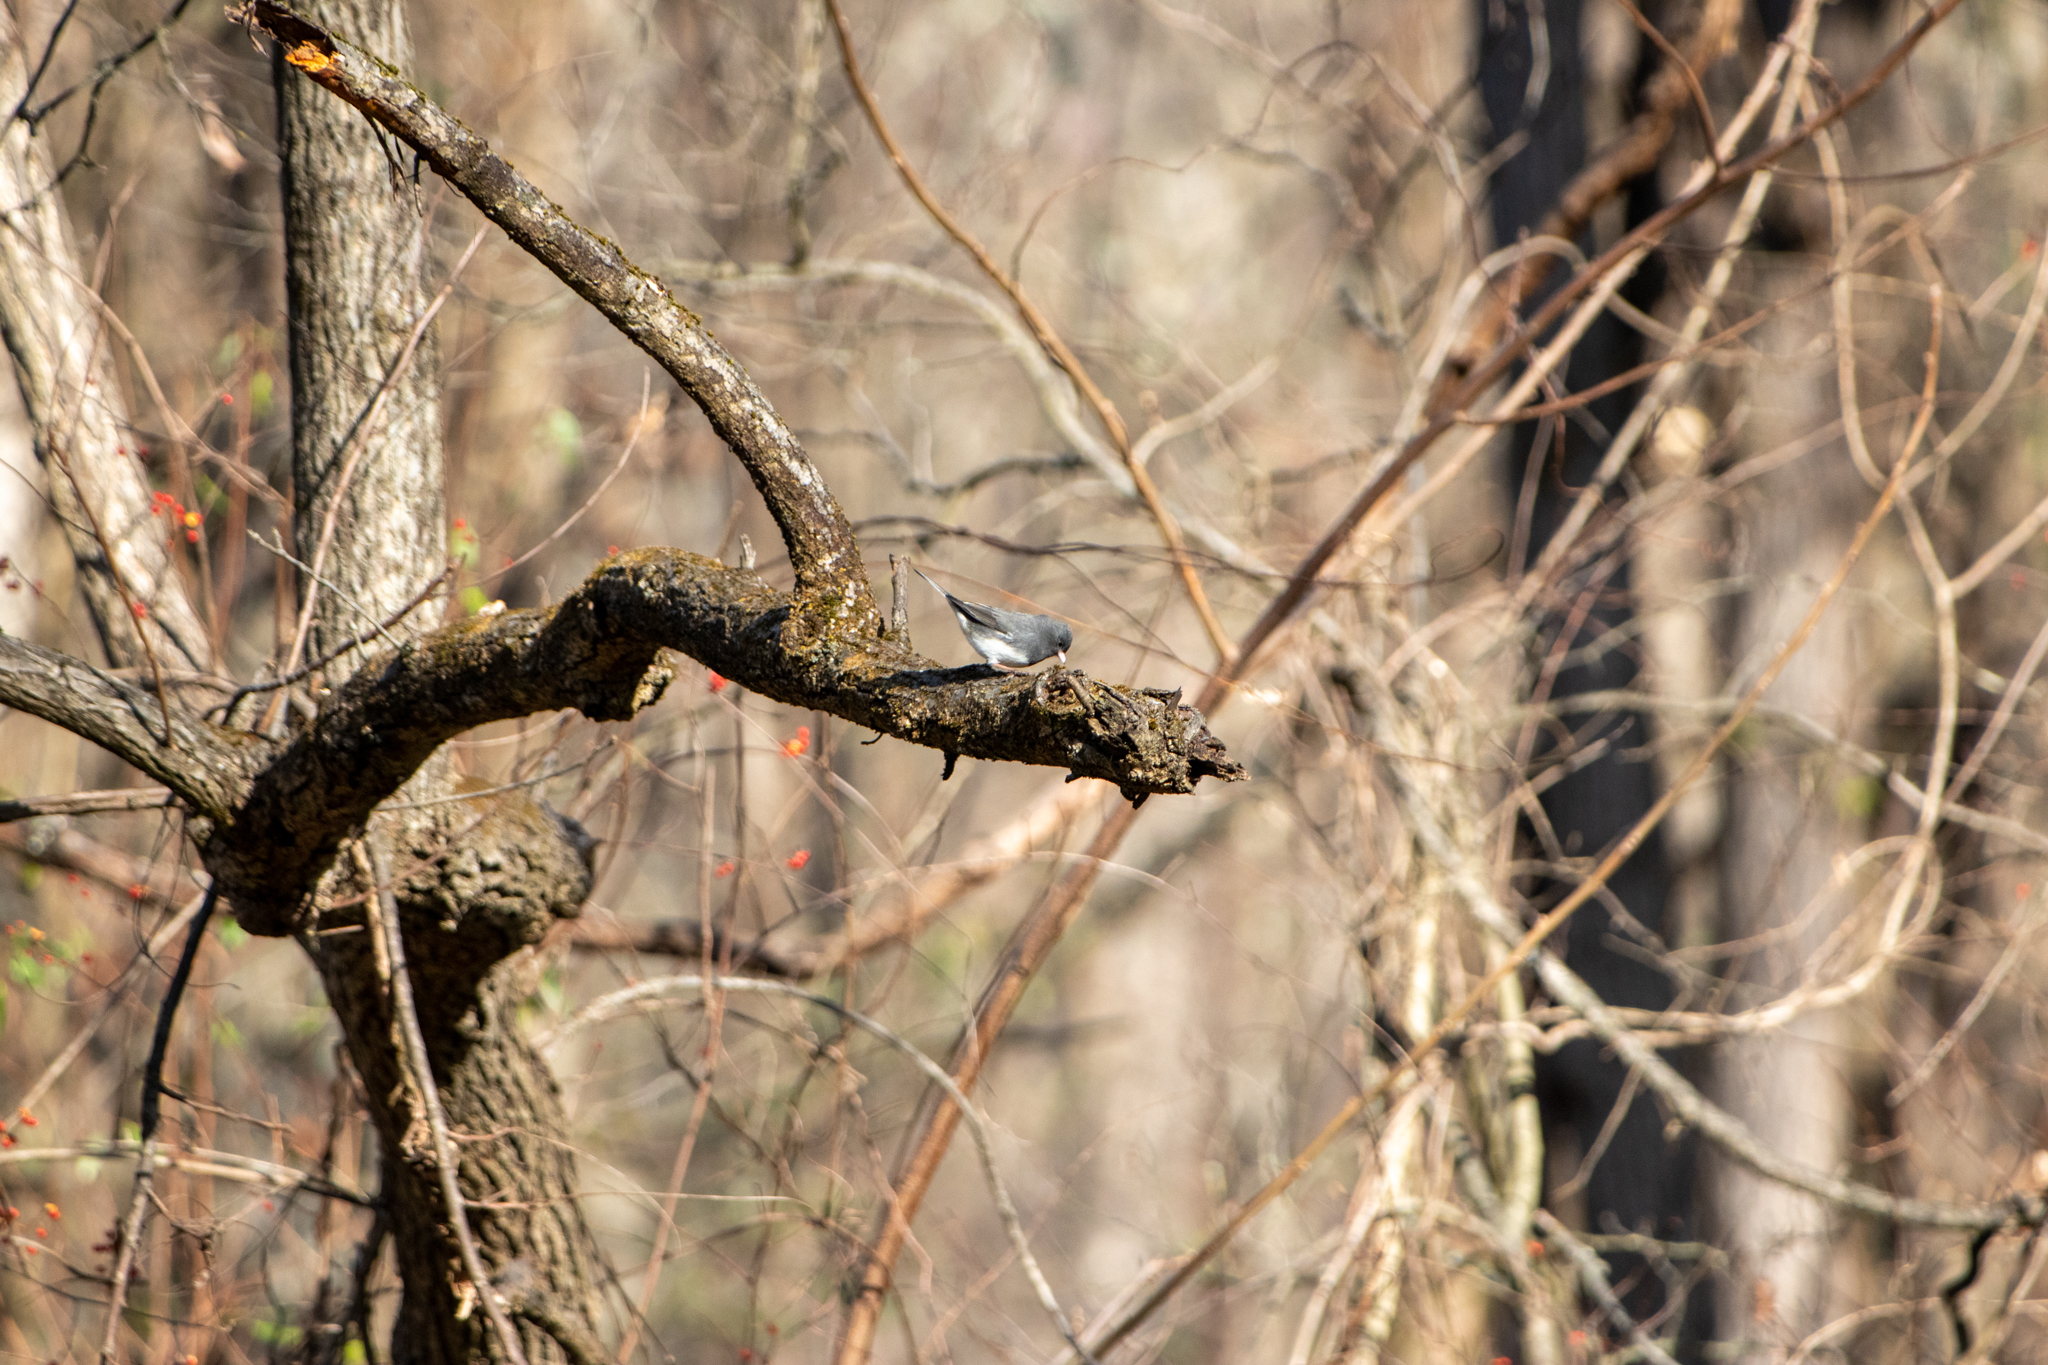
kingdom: Animalia
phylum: Chordata
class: Aves
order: Passeriformes
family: Passerellidae
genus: Junco
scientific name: Junco hyemalis
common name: Dark-eyed junco
